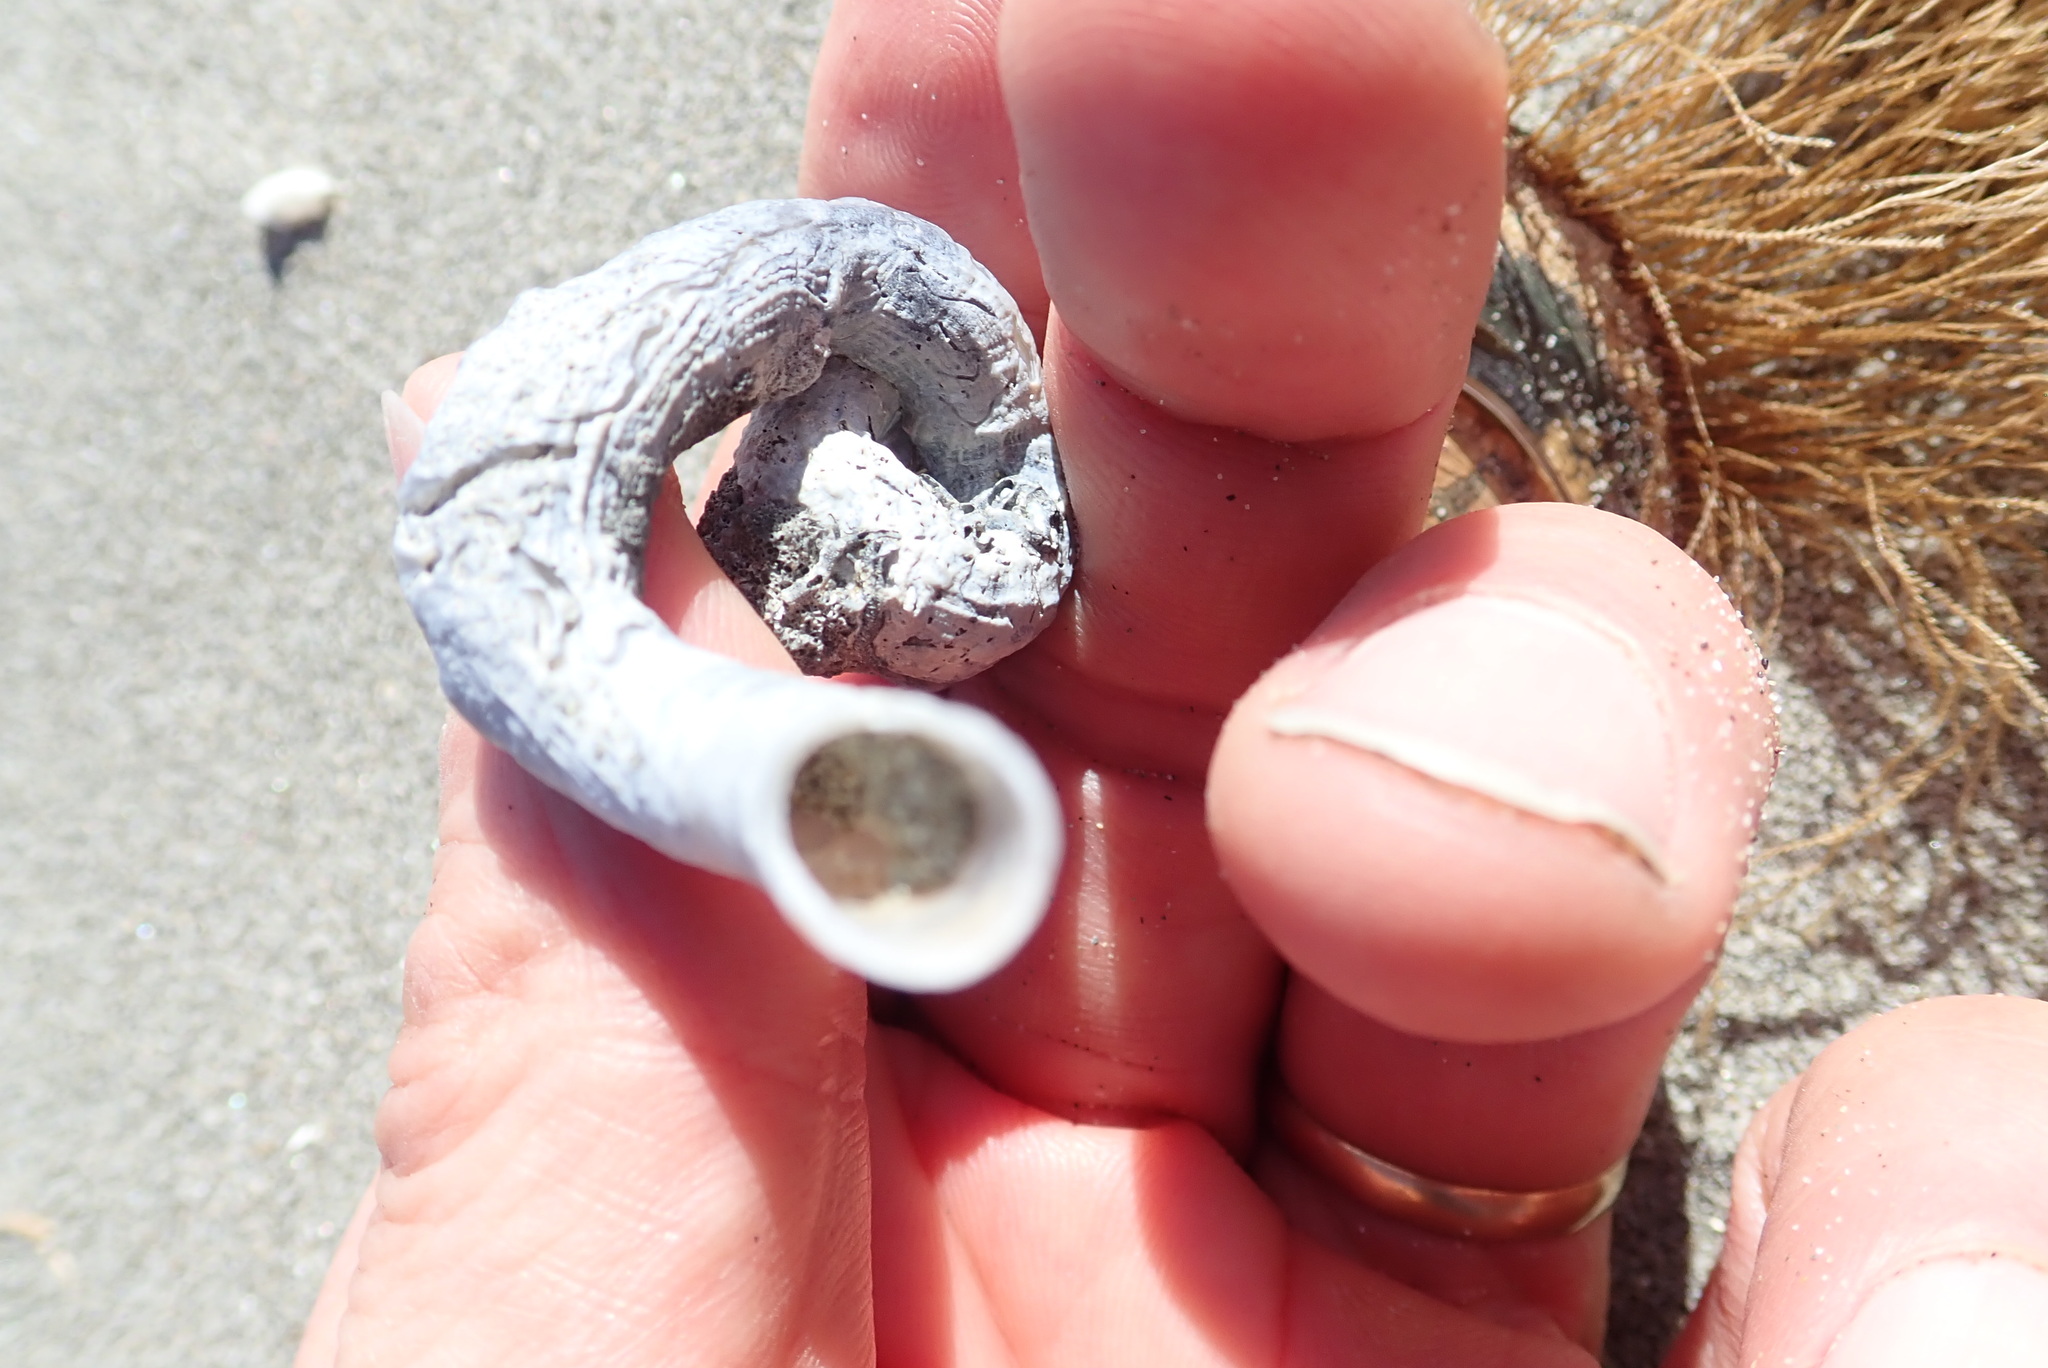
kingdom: Animalia
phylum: Mollusca
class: Gastropoda
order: Littorinimorpha
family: Vermetidae
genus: Thylacodes
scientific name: Thylacodes zelandicus
